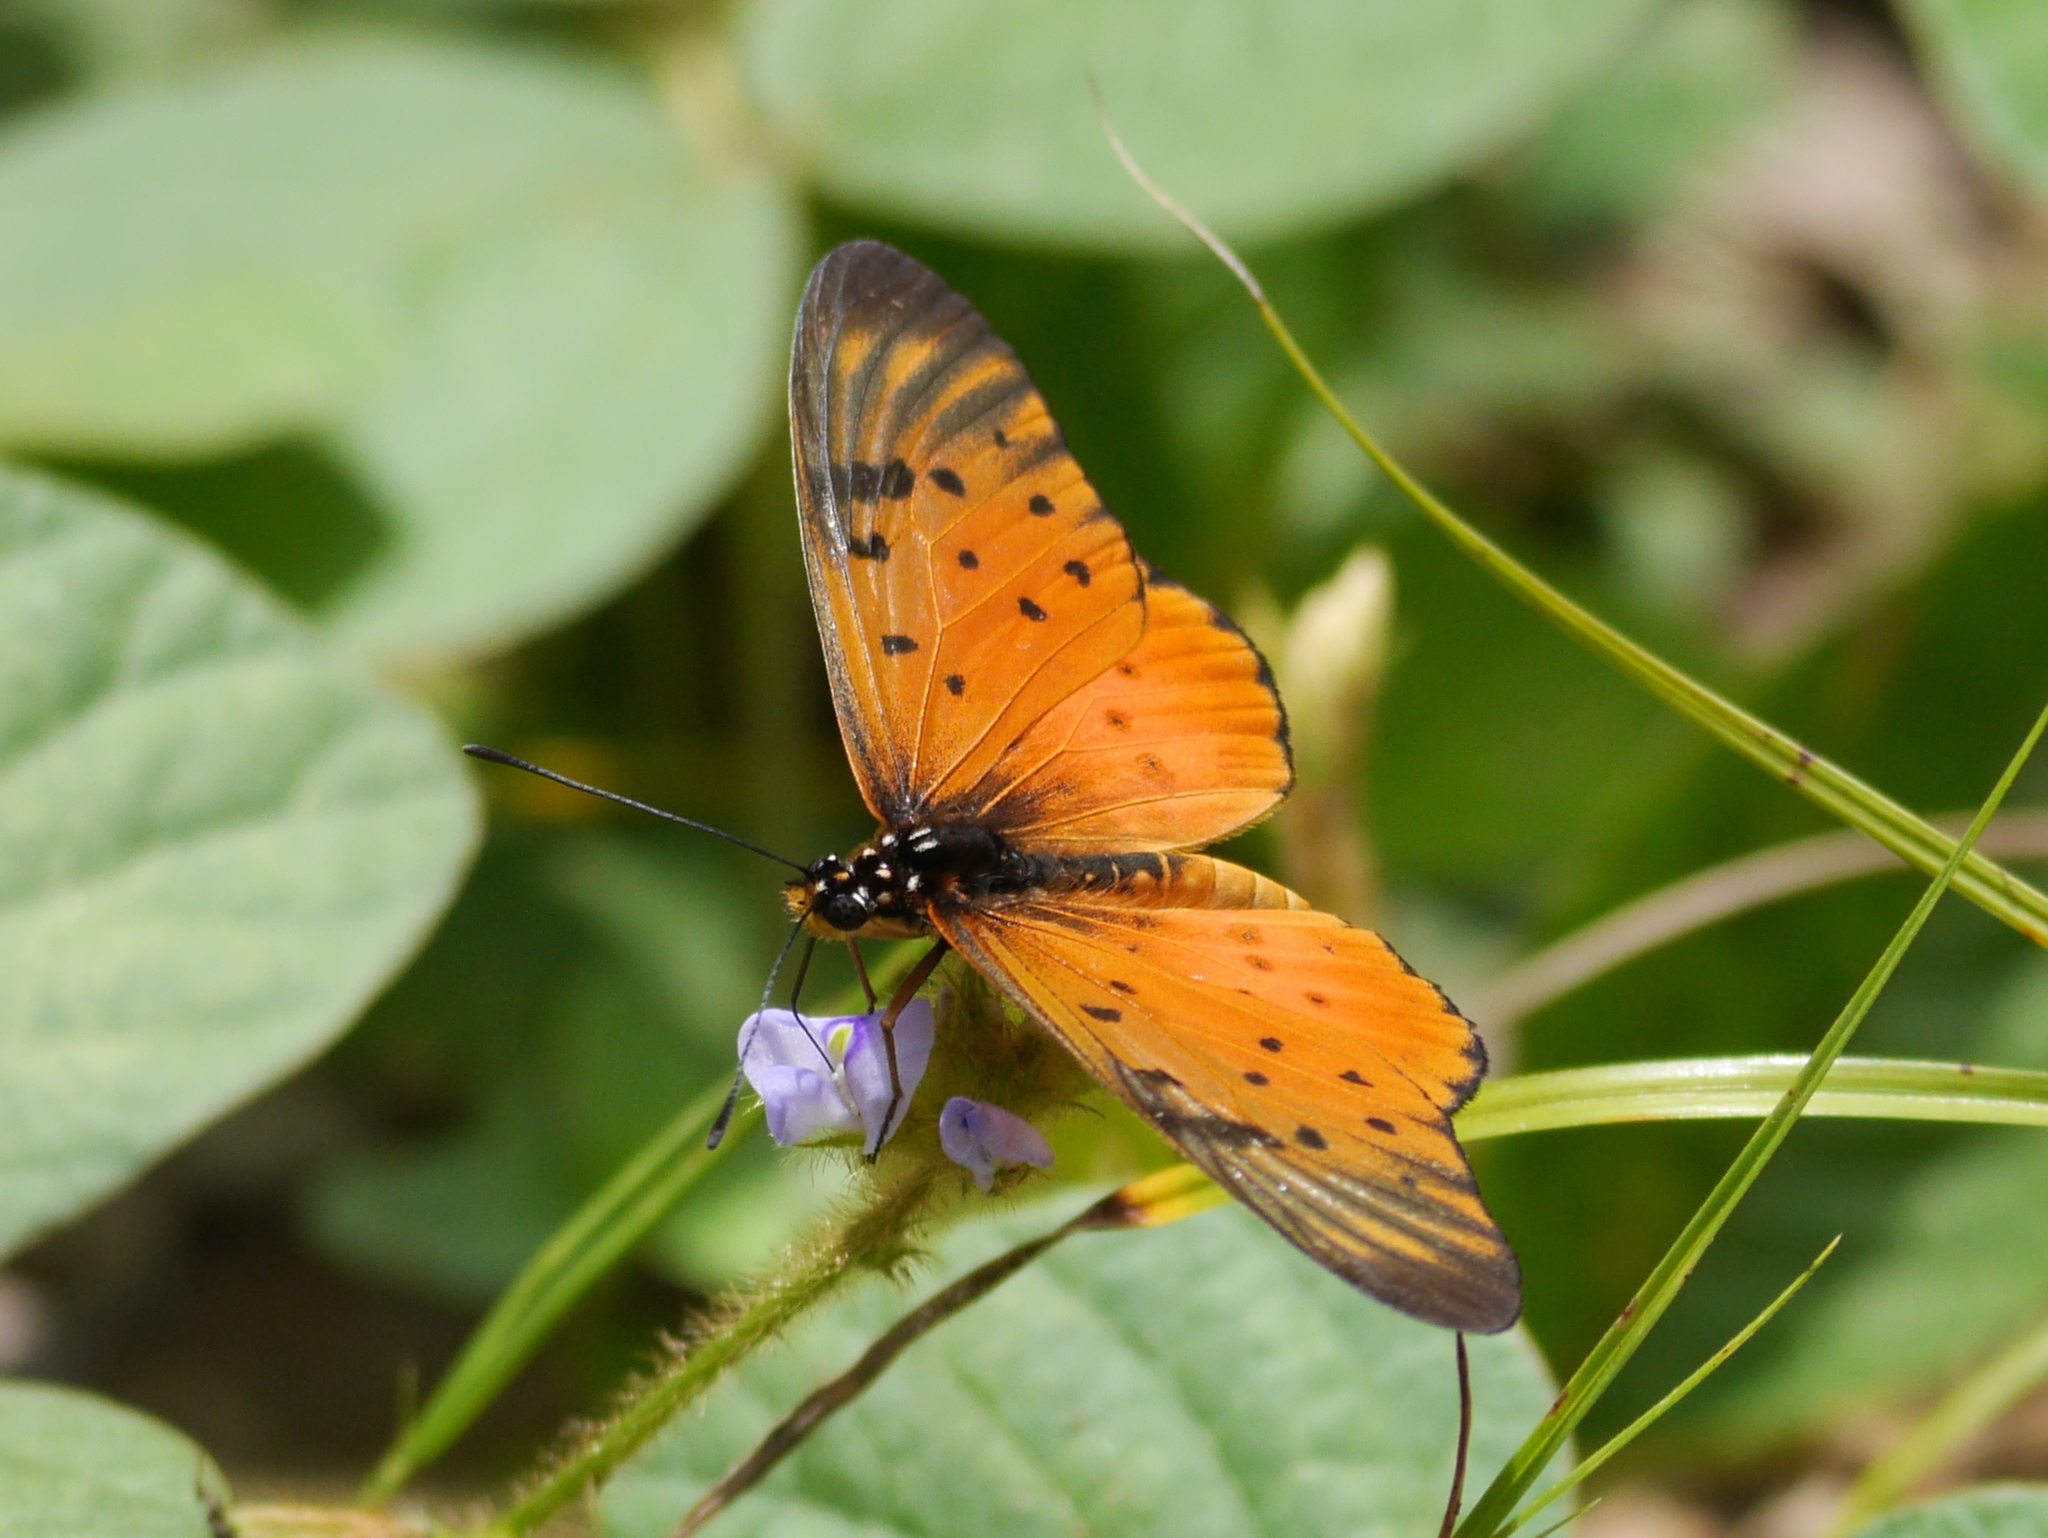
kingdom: Animalia
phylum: Arthropoda
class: Insecta
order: Lepidoptera
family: Nymphalidae
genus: Stephenia
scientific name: Stephenia
